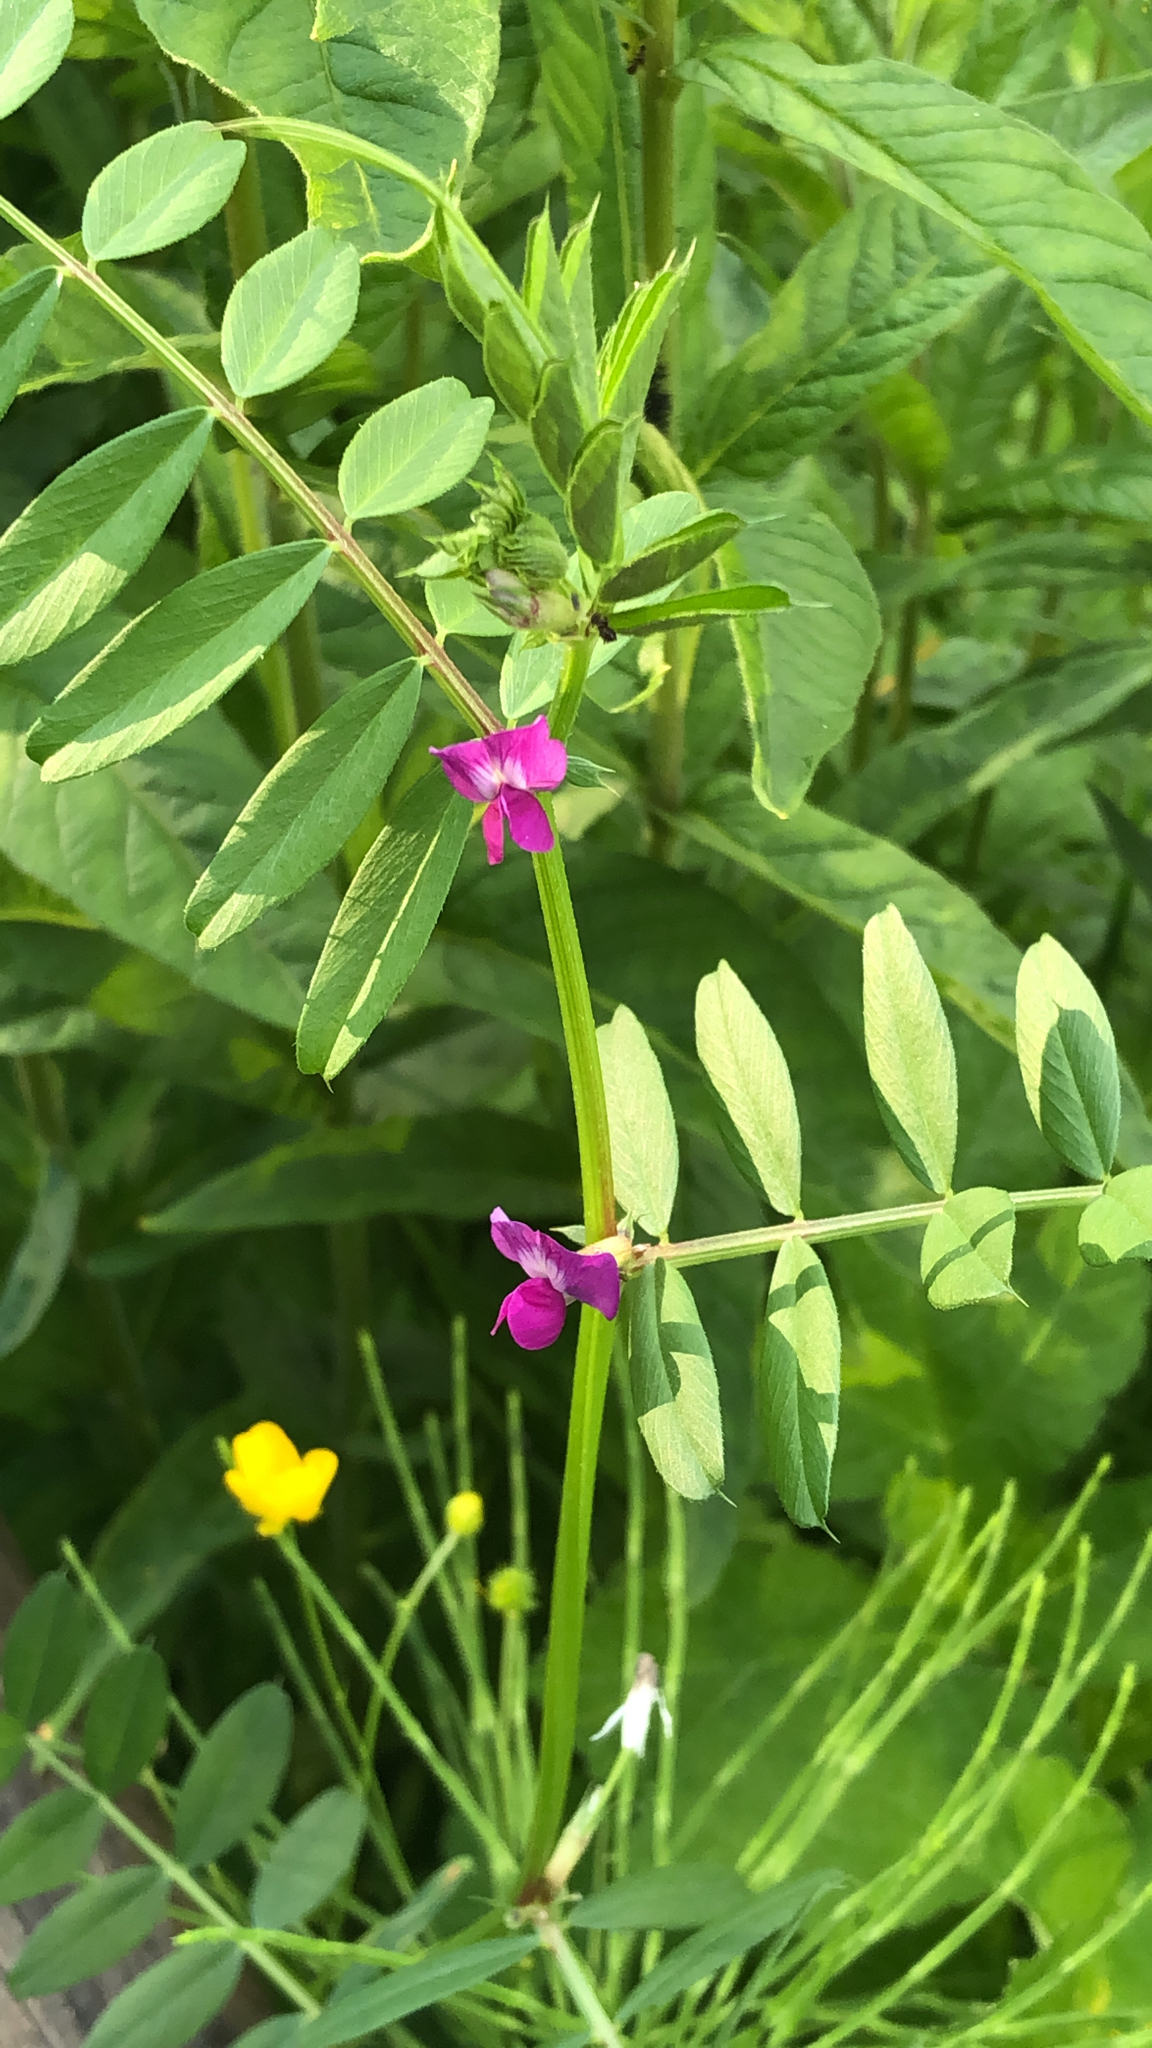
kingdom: Plantae
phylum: Tracheophyta
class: Magnoliopsida
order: Fabales
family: Fabaceae
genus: Vicia
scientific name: Vicia sativa
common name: Garden vetch
